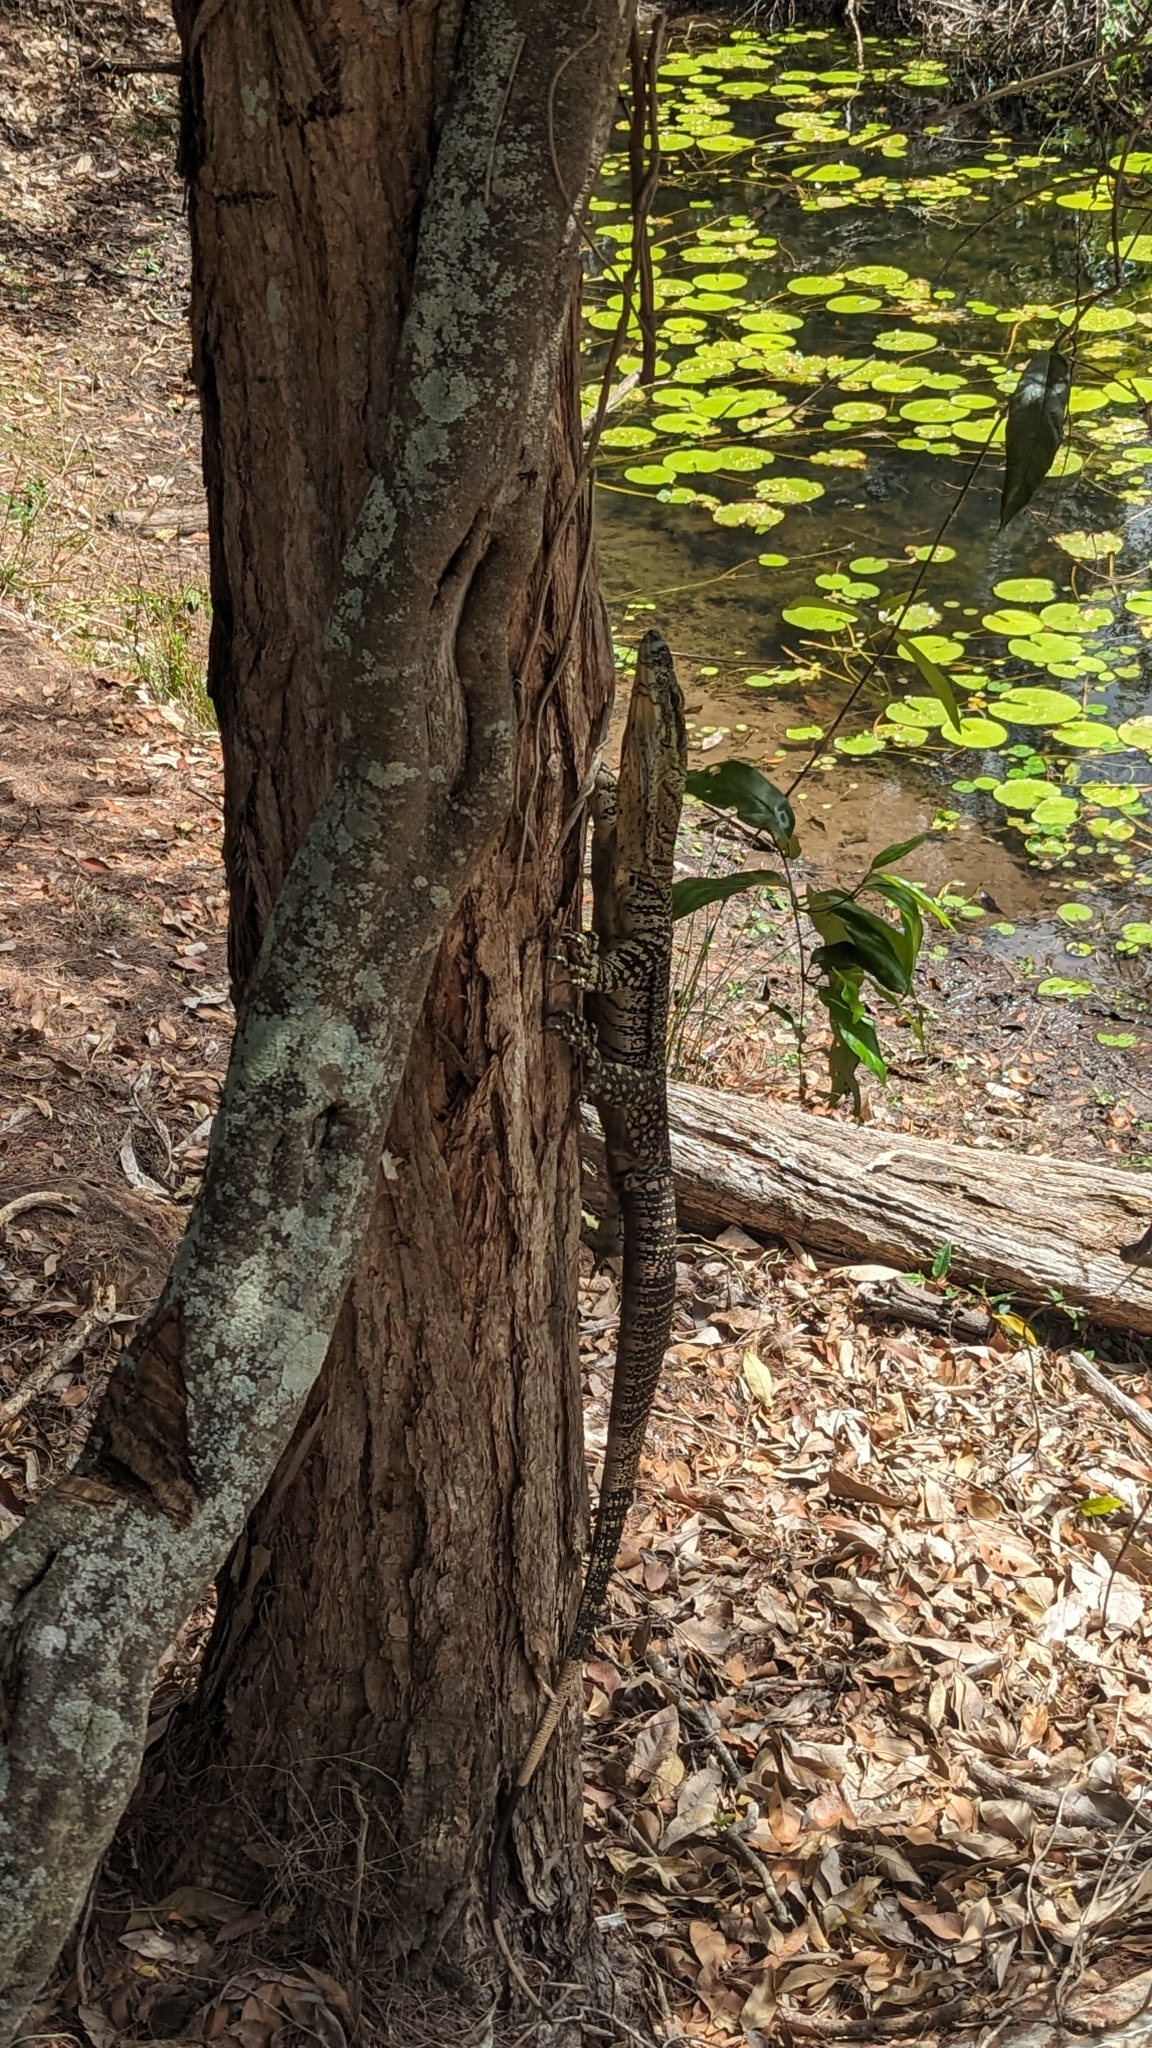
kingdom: Animalia
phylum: Chordata
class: Squamata
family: Varanidae
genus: Varanus
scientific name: Varanus varius
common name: Lace monitor
